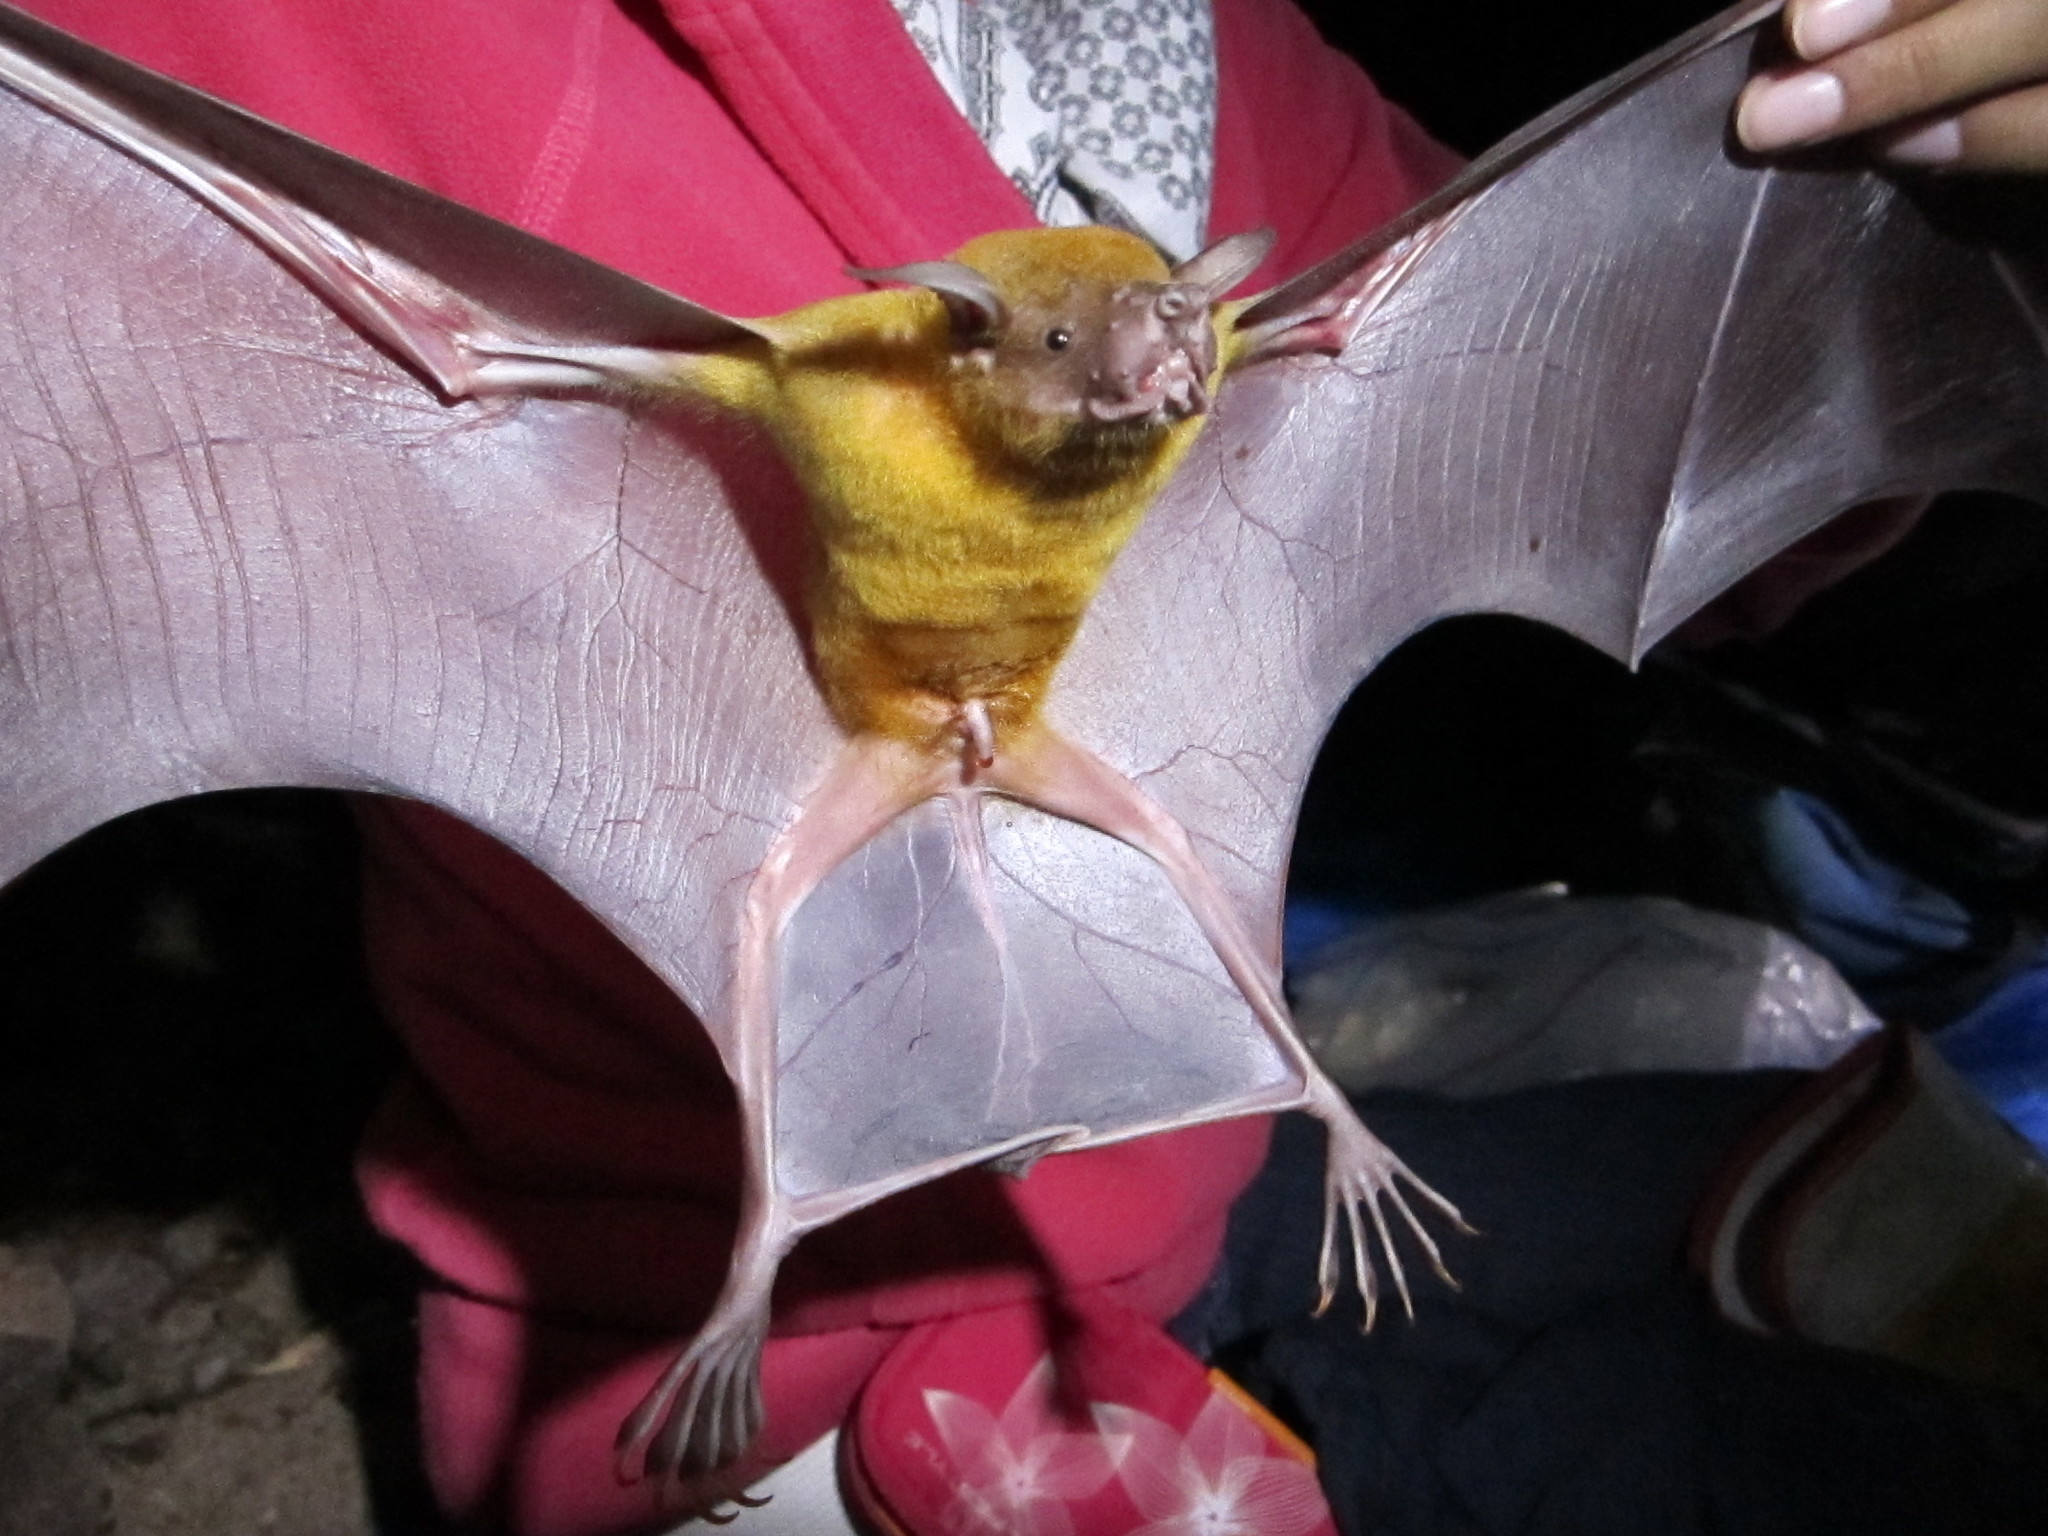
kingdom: Animalia
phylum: Chordata
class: Mammalia
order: Chiroptera
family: Noctilionidae
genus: Noctilio
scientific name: Noctilio leporinus
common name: Greater bulldog bat
